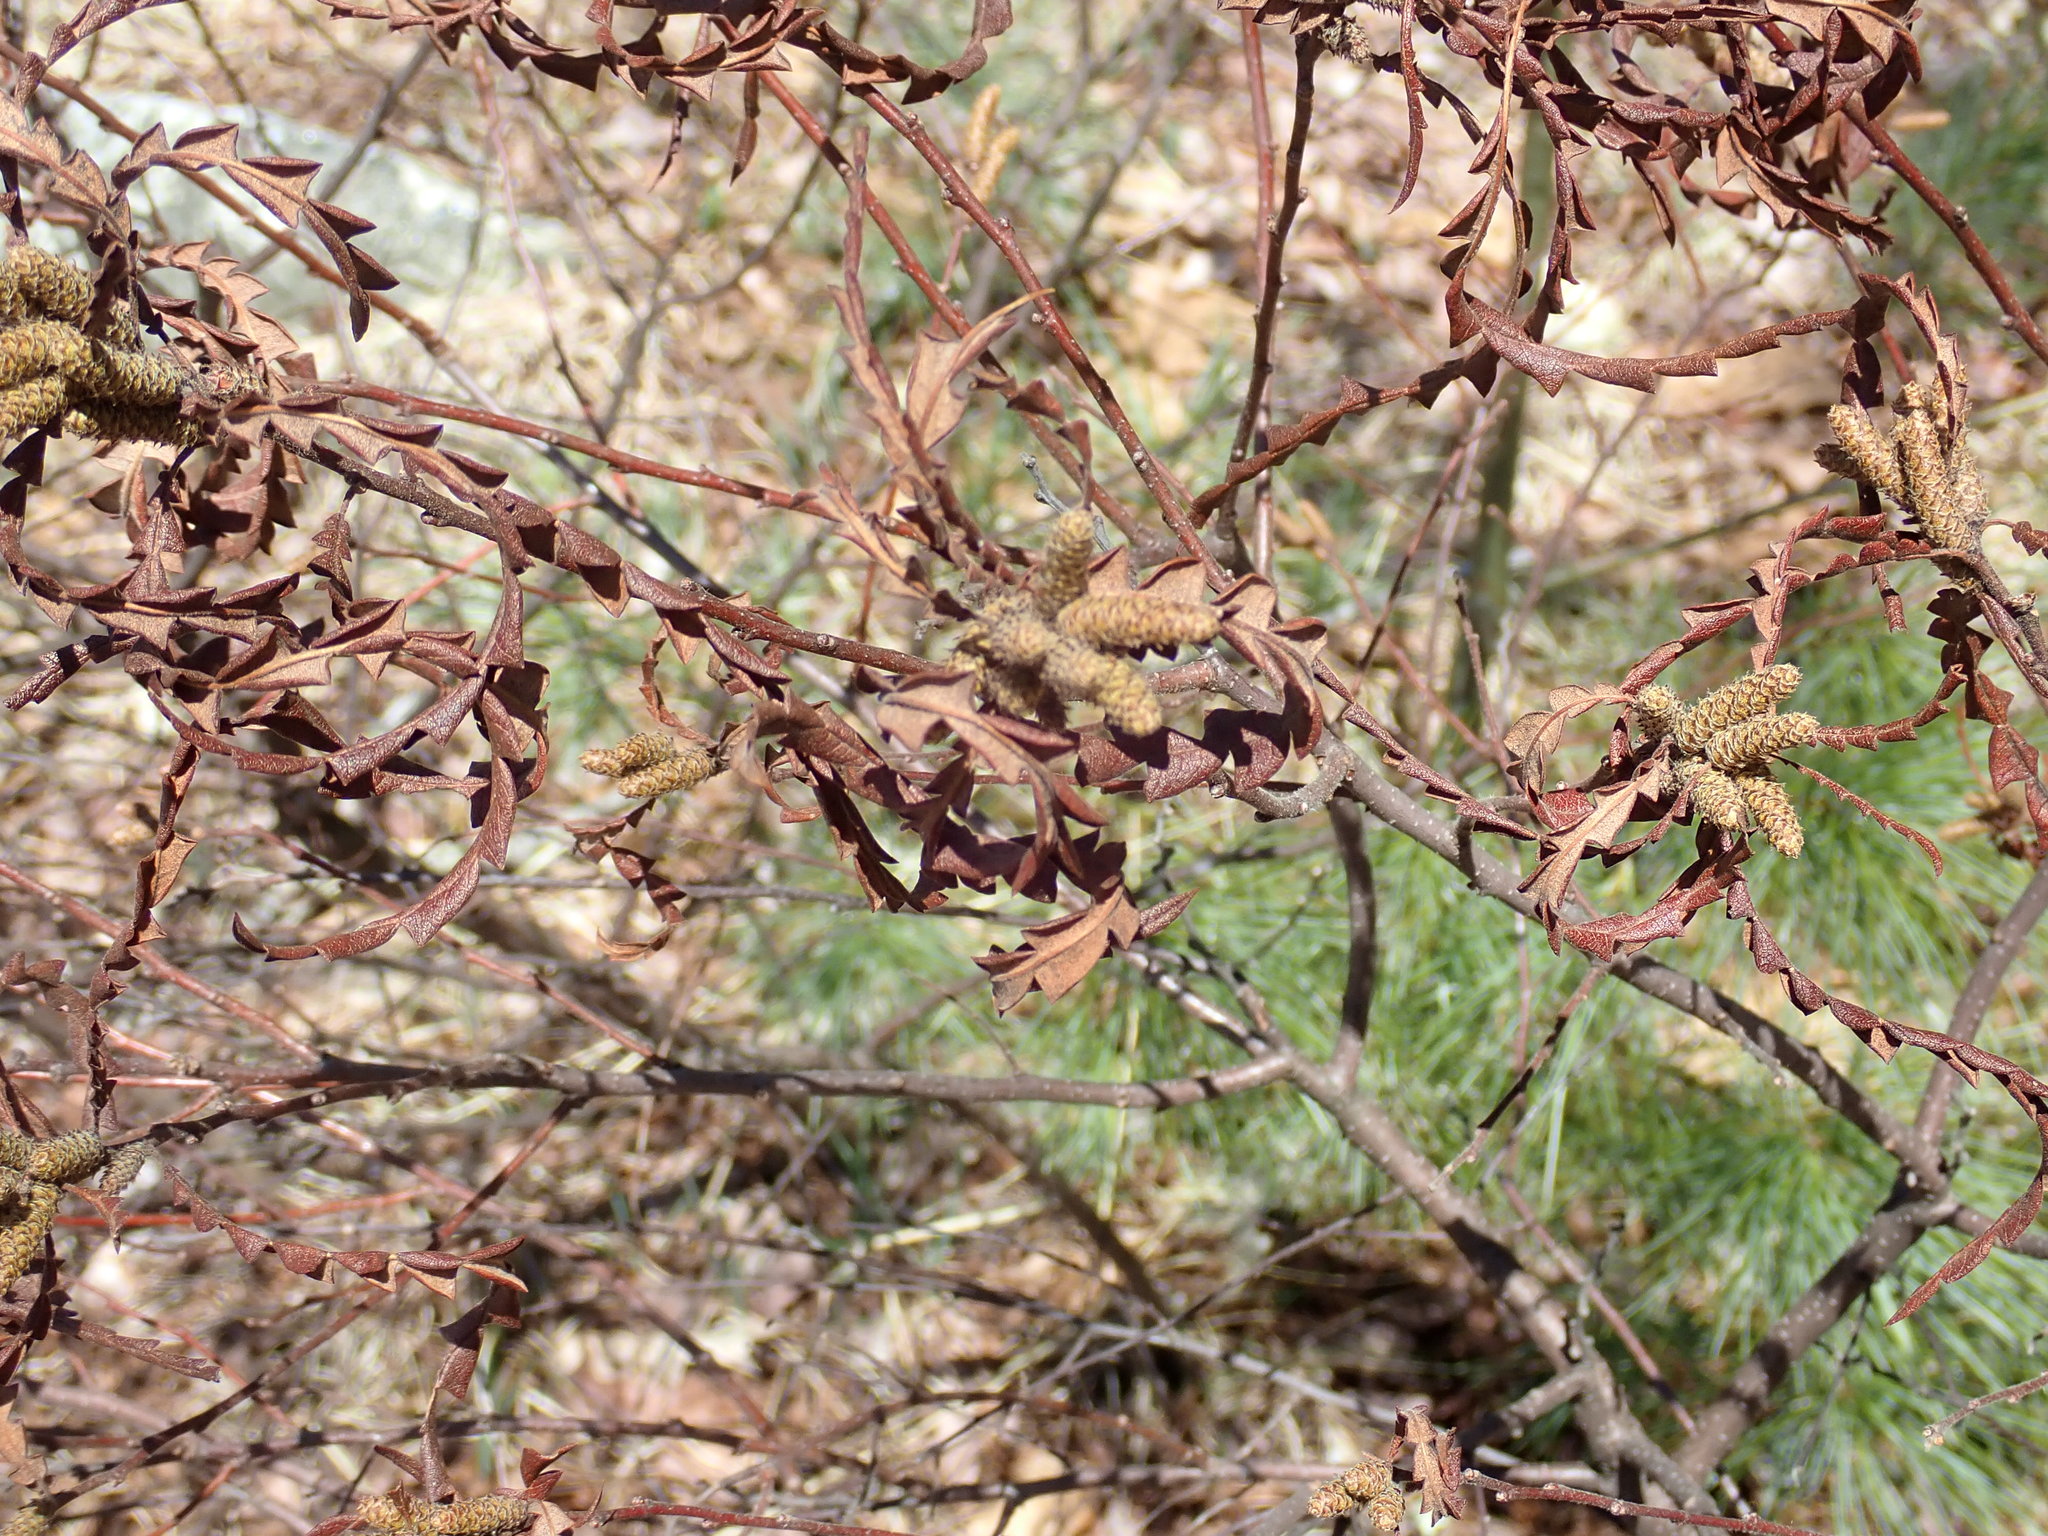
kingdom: Plantae
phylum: Tracheophyta
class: Magnoliopsida
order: Fagales
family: Myricaceae
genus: Comptonia
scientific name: Comptonia peregrina
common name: Sweet-fern
